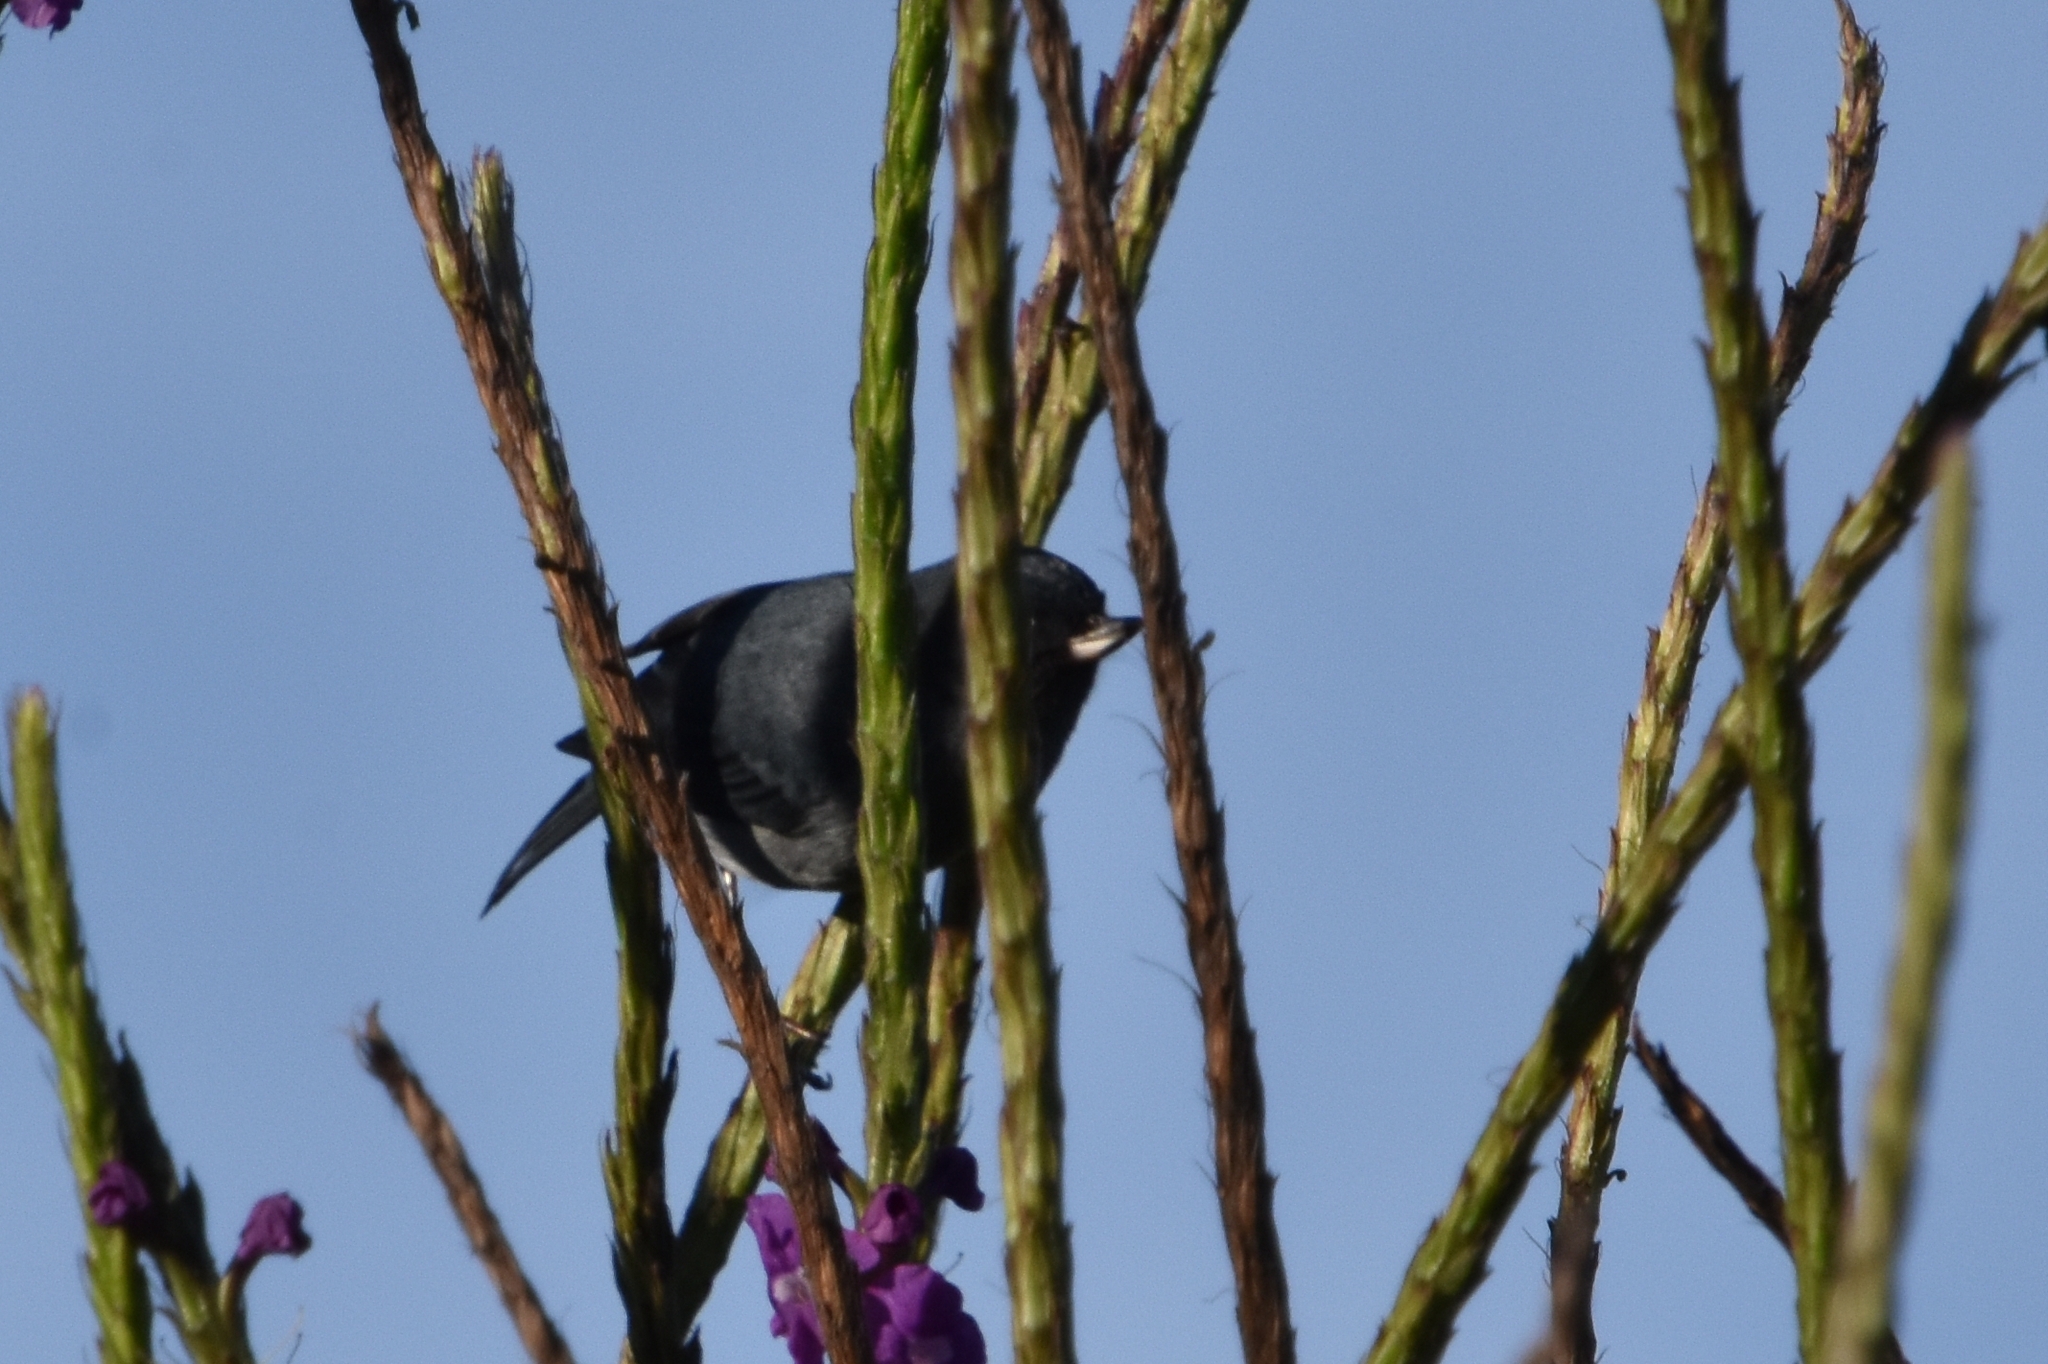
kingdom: Animalia
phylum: Chordata
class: Aves
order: Passeriformes
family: Thraupidae
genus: Diglossa
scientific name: Diglossa plumbea
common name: Slaty flowerpiercer
